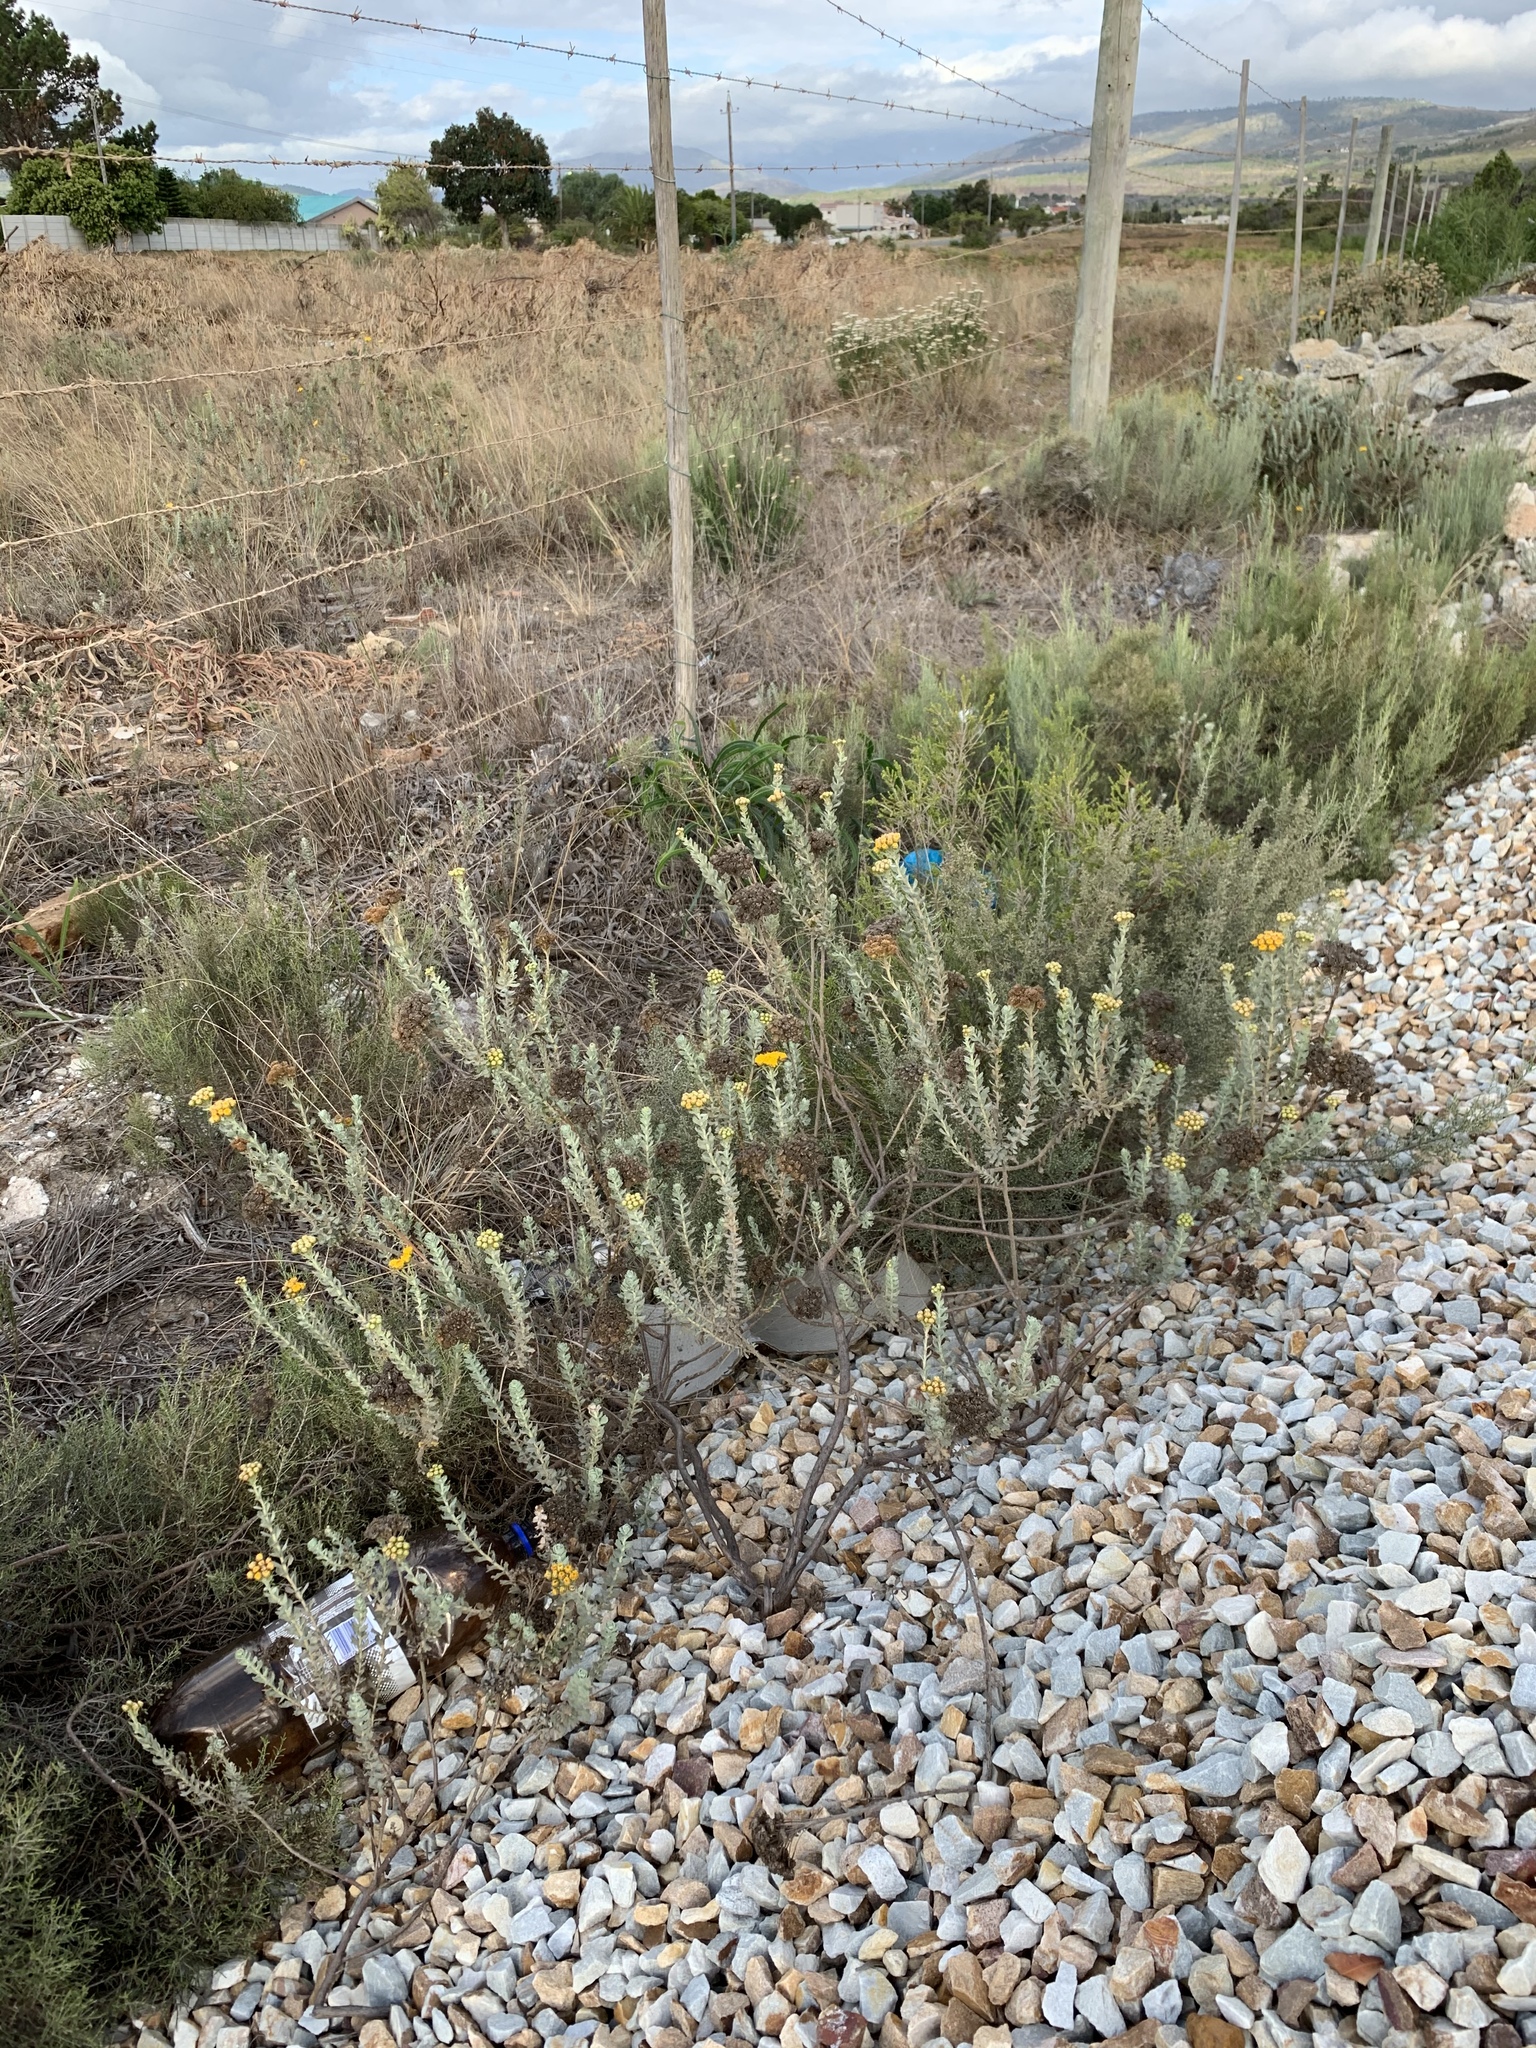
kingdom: Plantae
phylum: Tracheophyta
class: Magnoliopsida
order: Asterales
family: Asteraceae
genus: Athanasia
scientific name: Athanasia trifurcata
